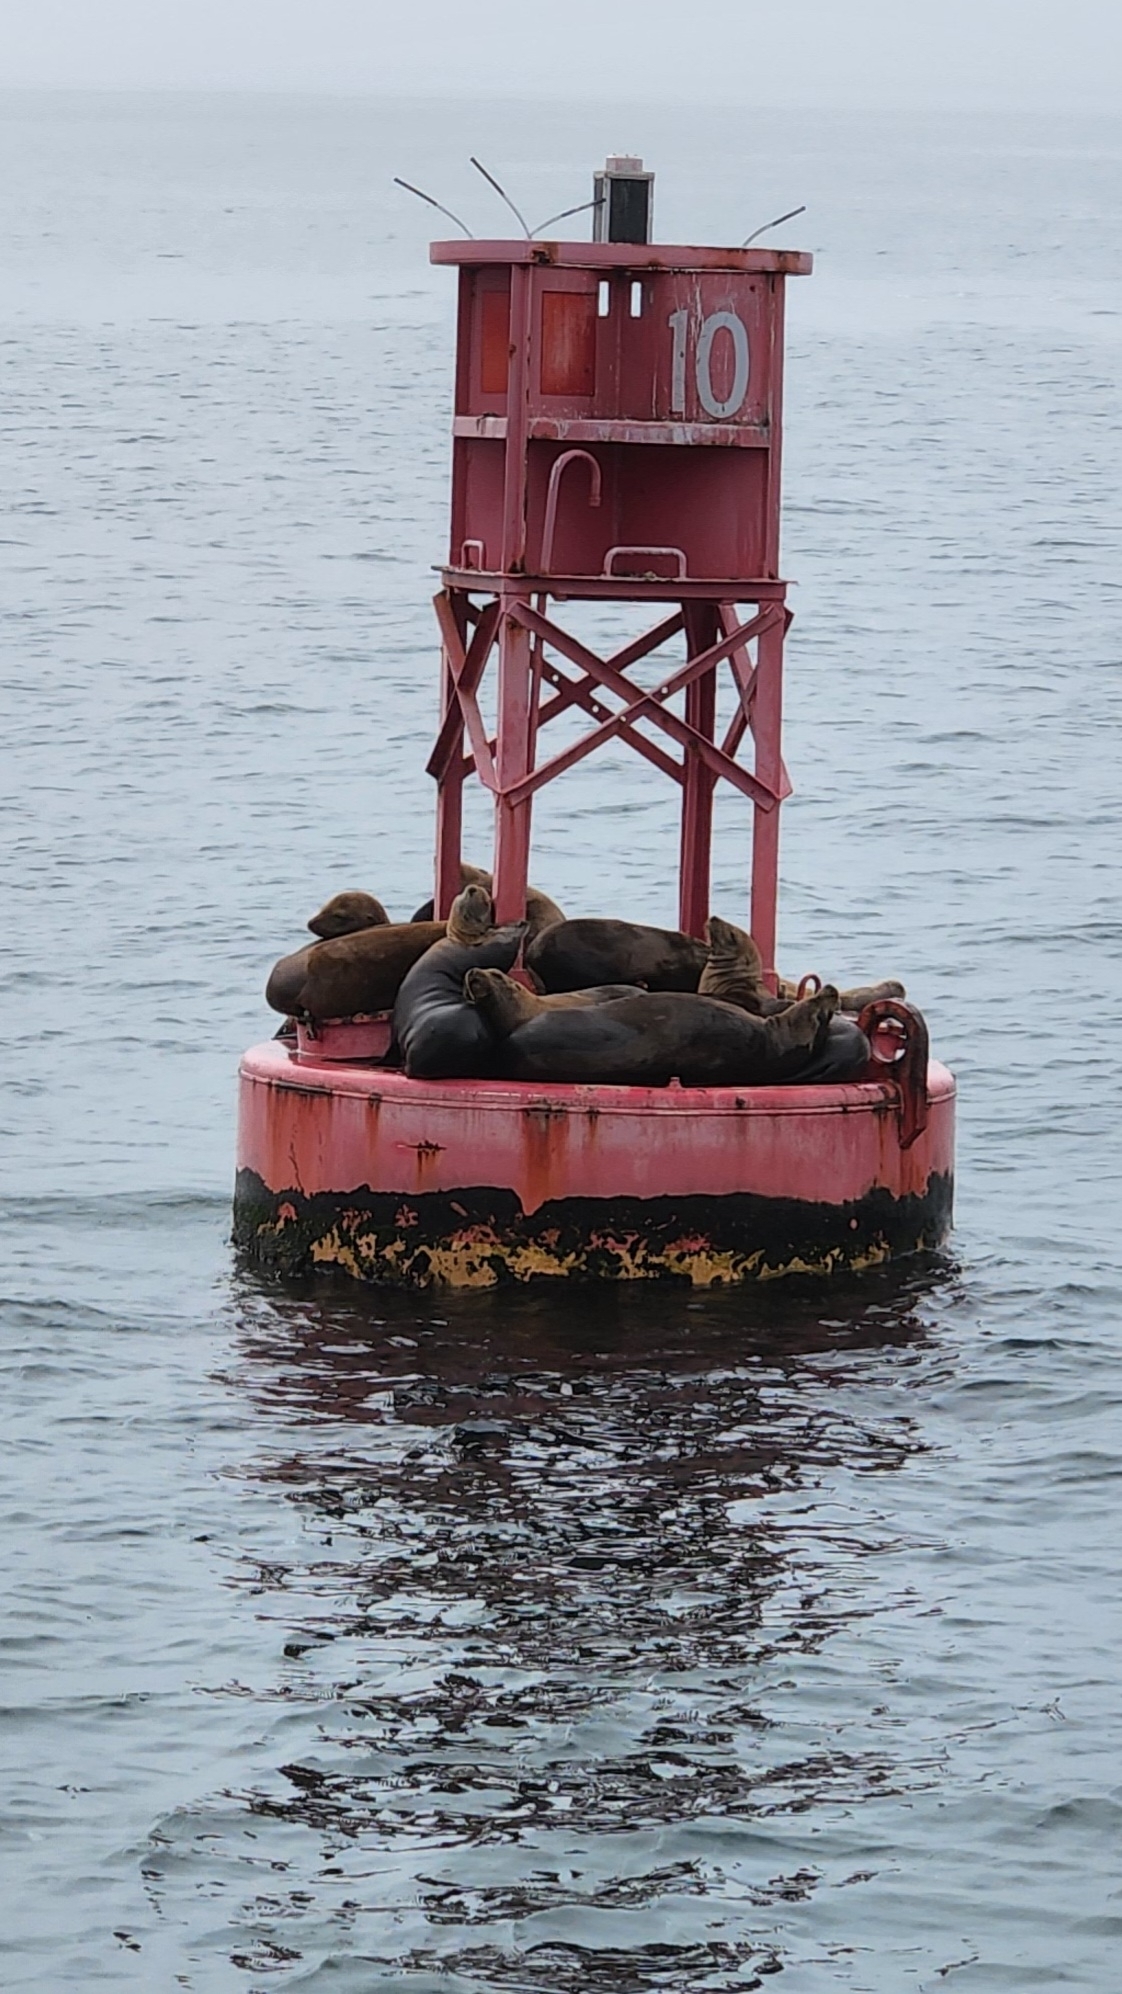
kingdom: Animalia
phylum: Chordata
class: Mammalia
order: Carnivora
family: Otariidae
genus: Zalophus
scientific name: Zalophus californianus
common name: California sea lion
